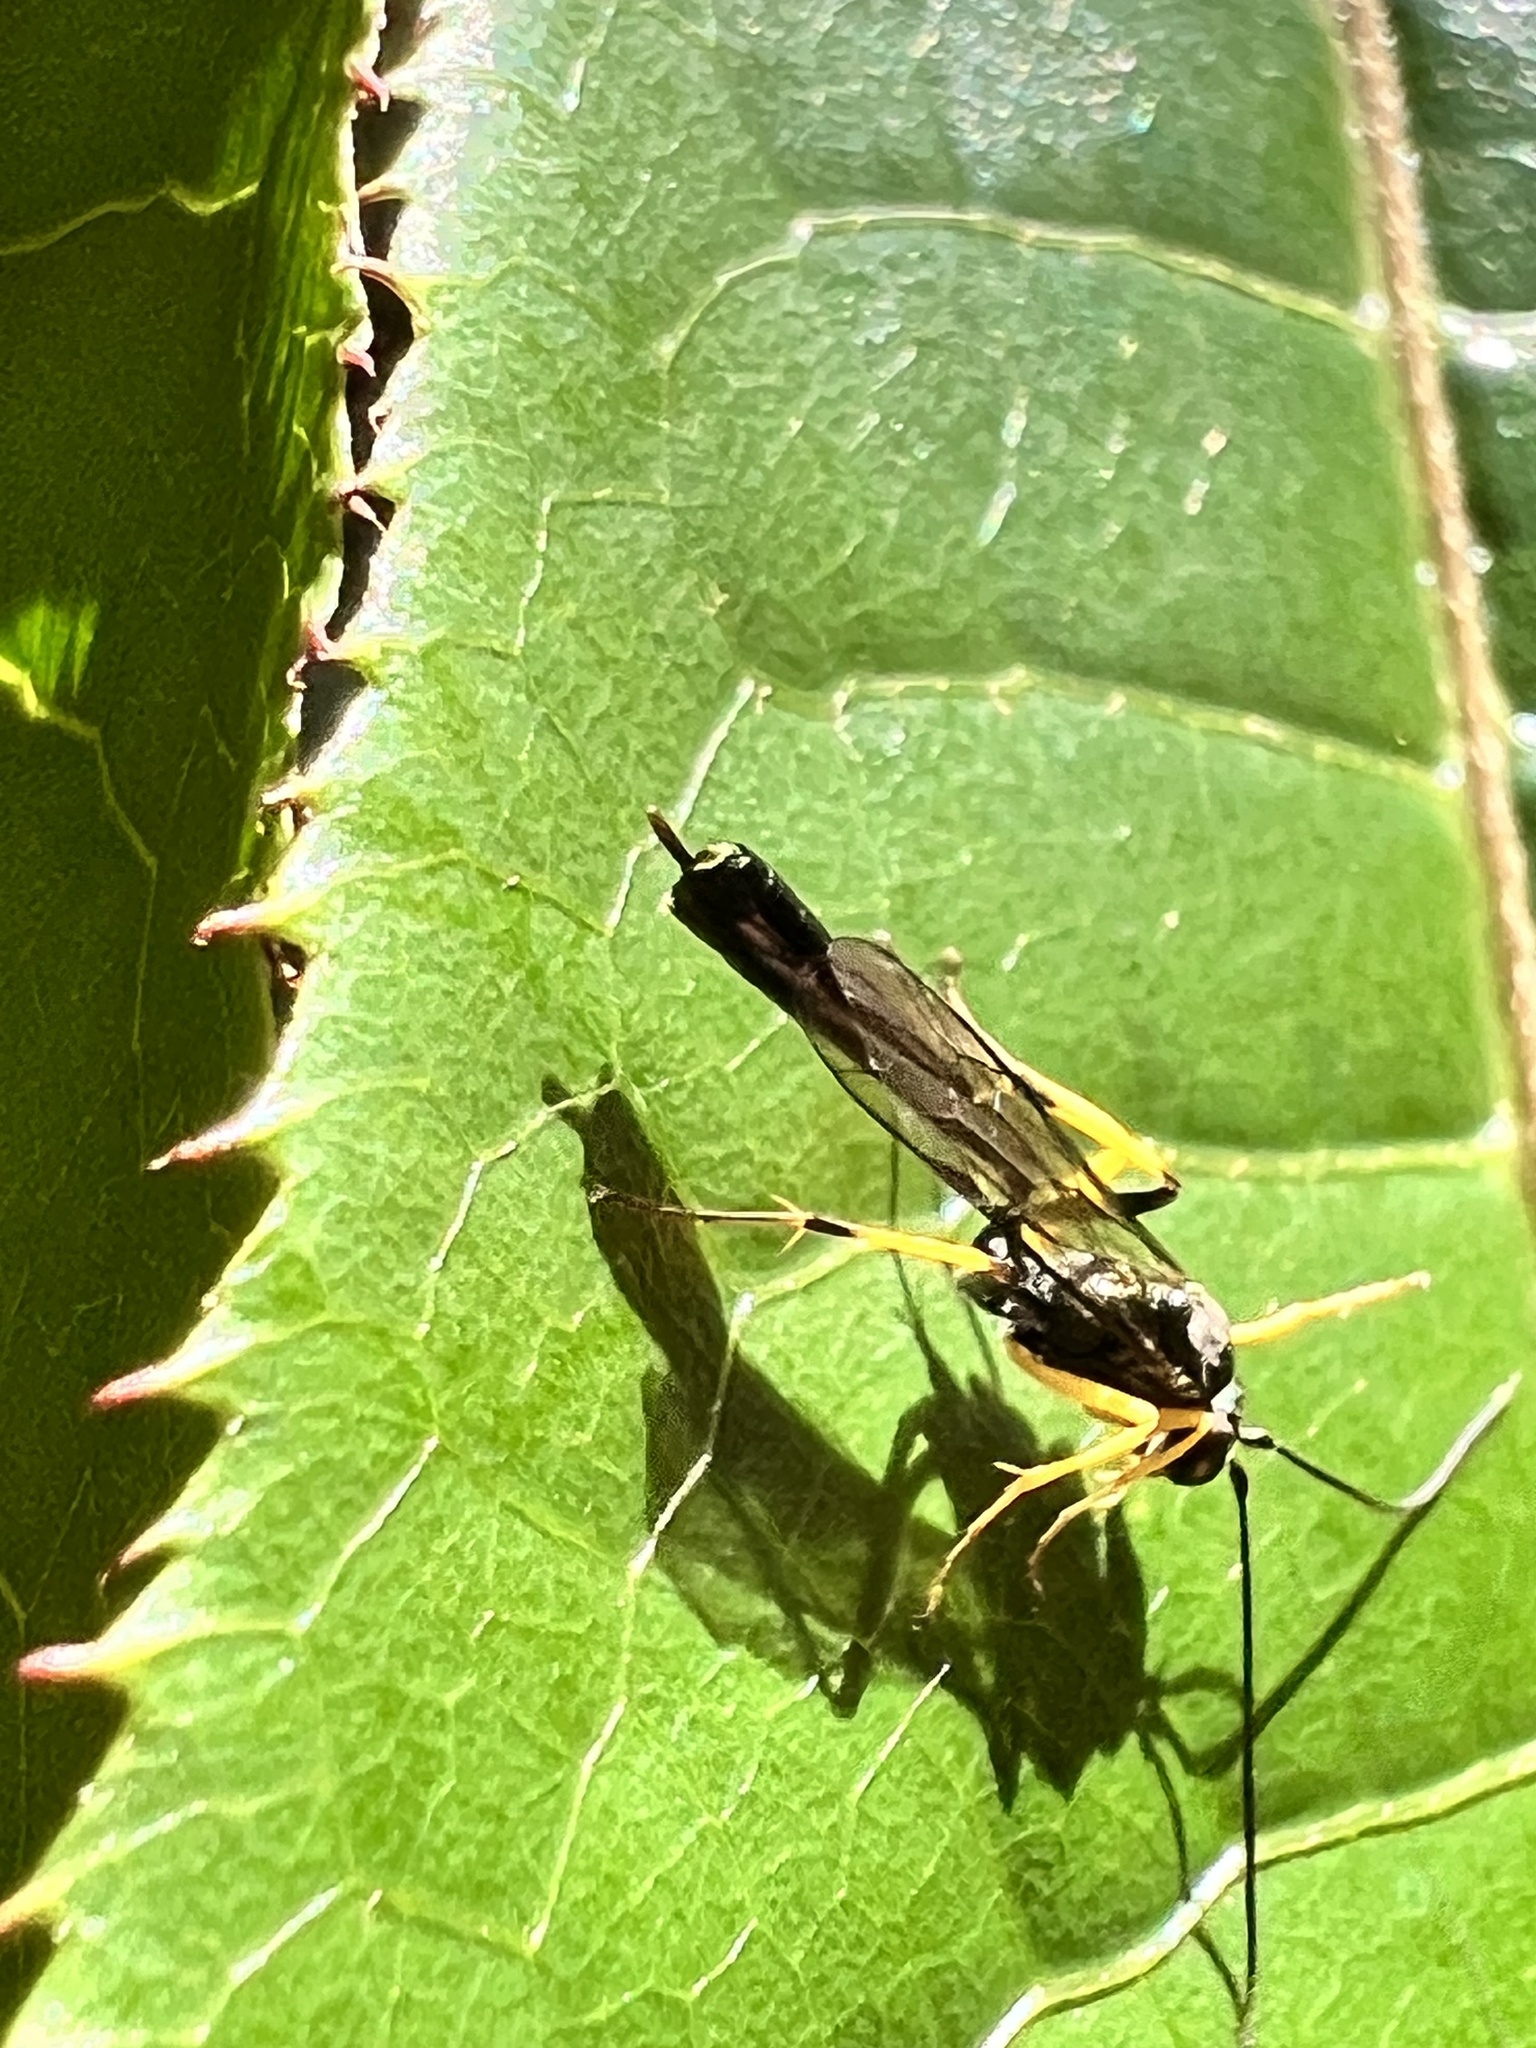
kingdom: Animalia
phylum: Arthropoda
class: Insecta
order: Hymenoptera
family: Ichneumonidae
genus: Dusona
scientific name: Dusona stramineipes
